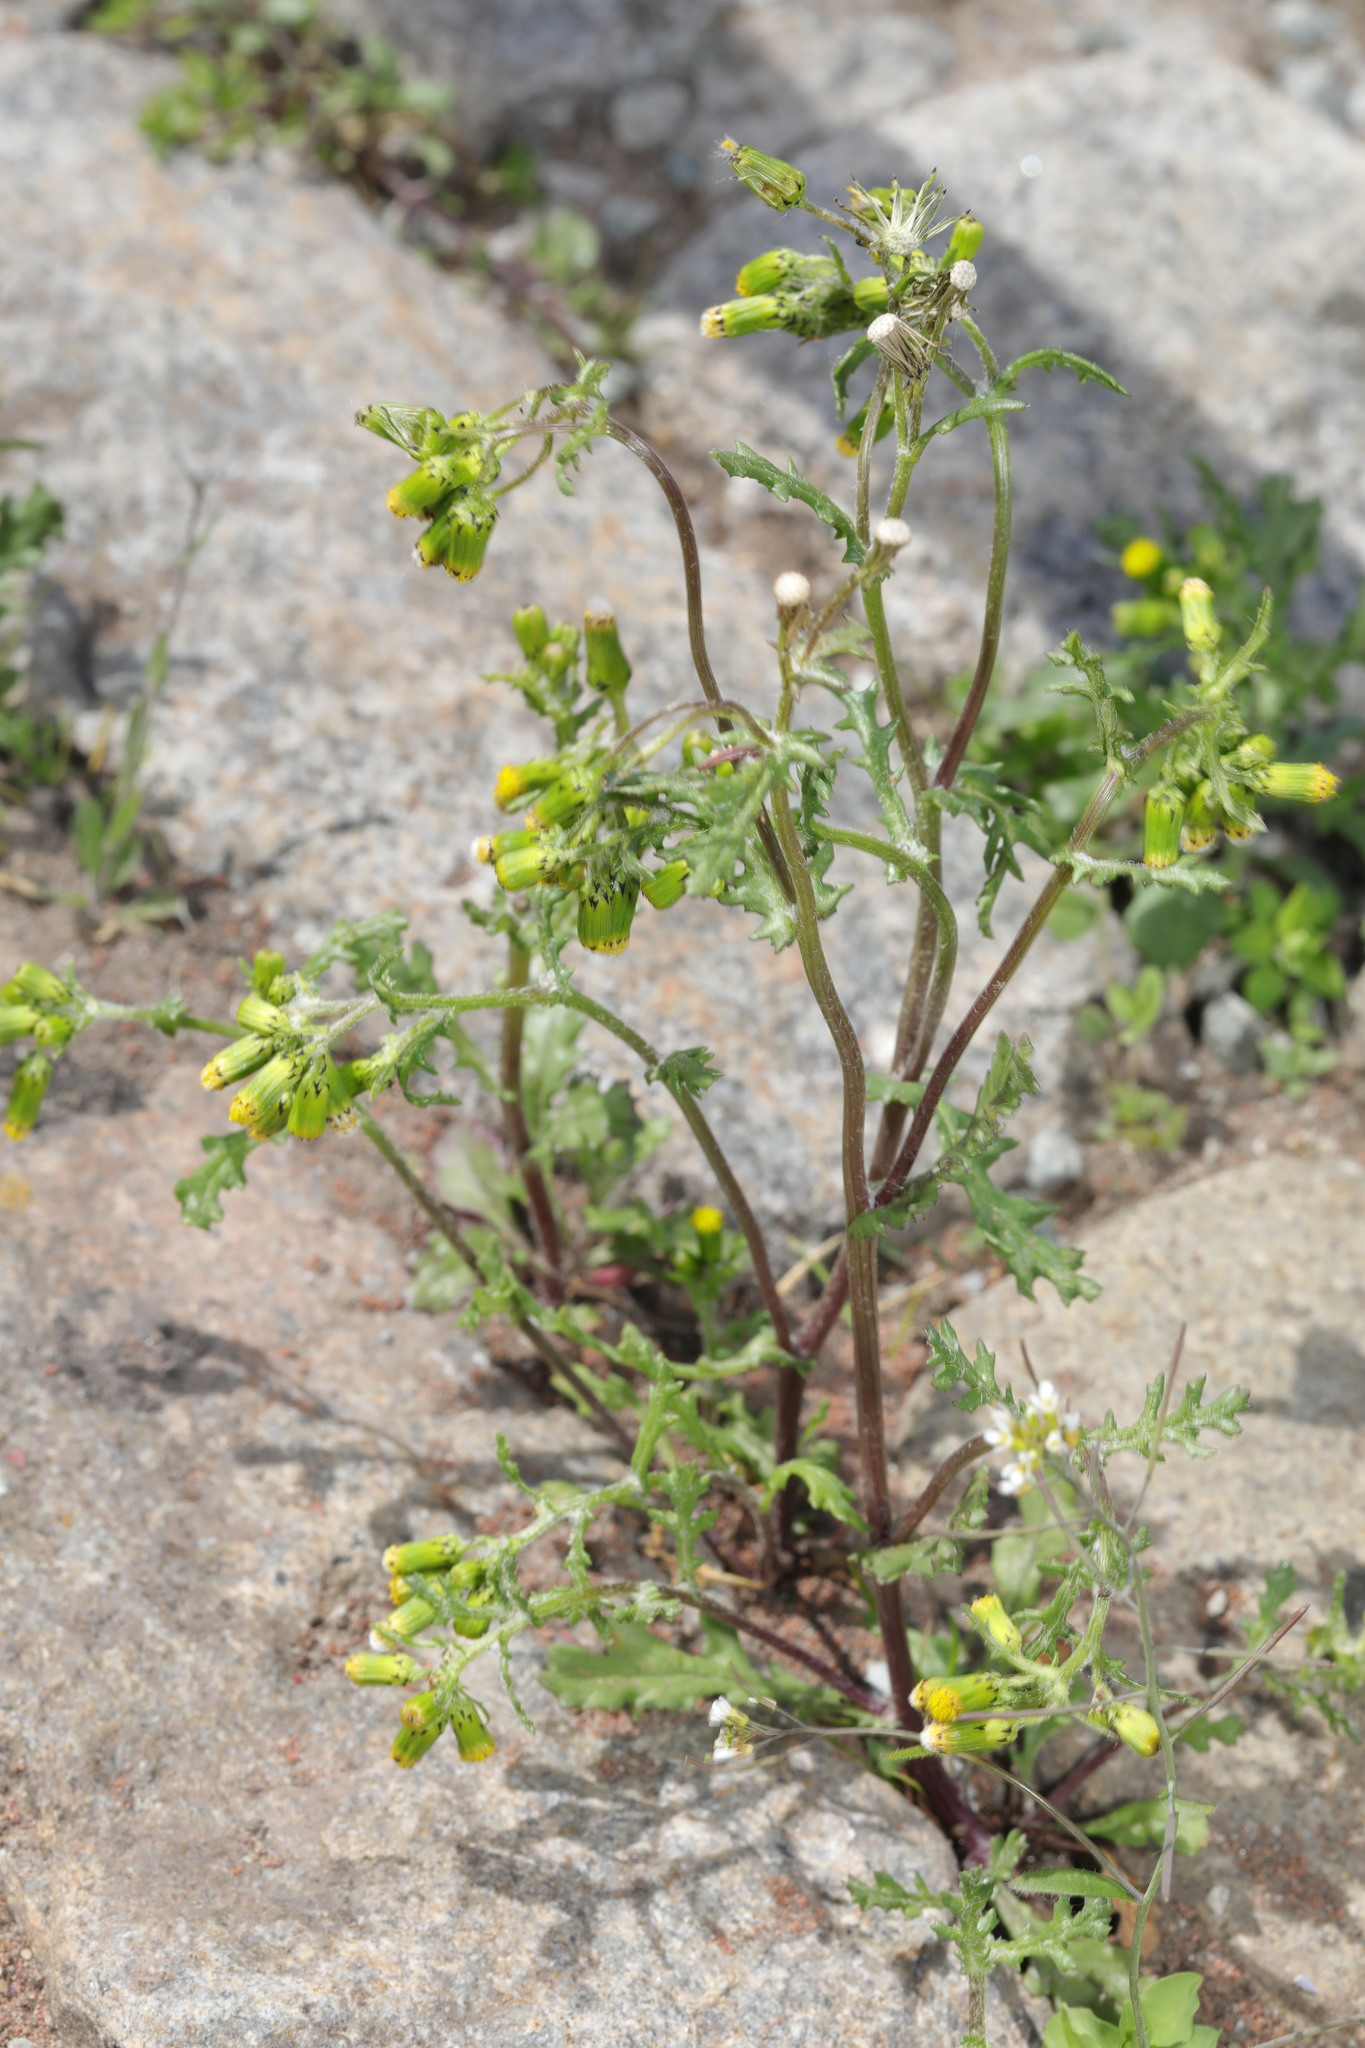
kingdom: Plantae
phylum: Tracheophyta
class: Magnoliopsida
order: Asterales
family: Asteraceae
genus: Senecio
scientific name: Senecio vulgaris
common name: Old-man-in-the-spring
